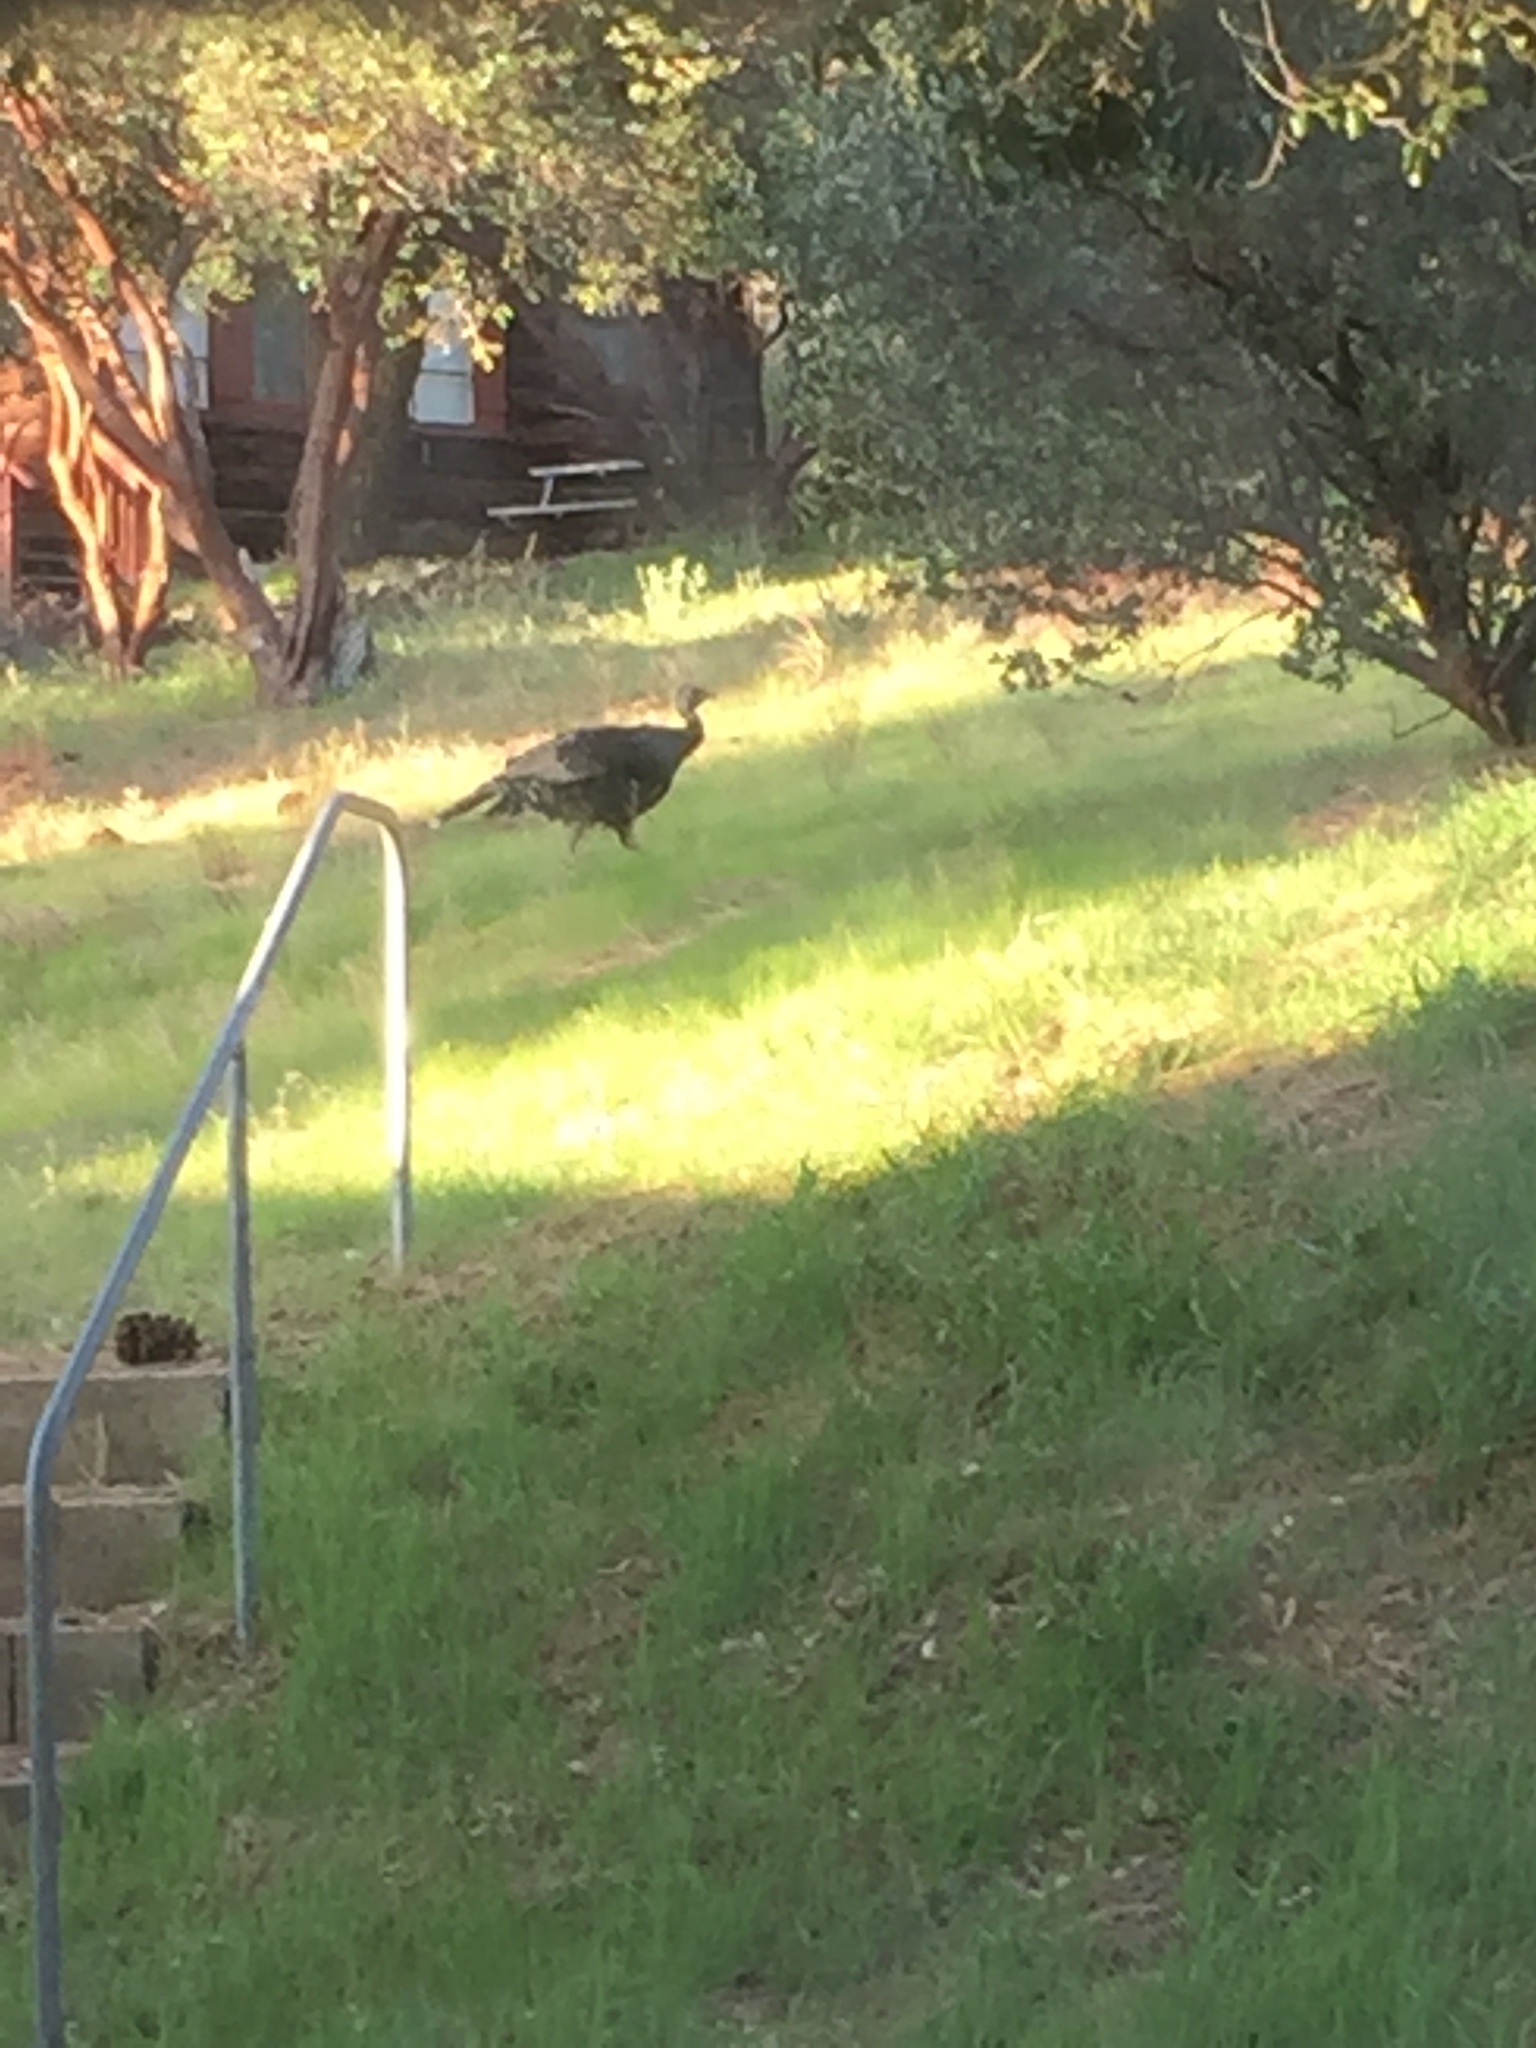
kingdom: Animalia
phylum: Chordata
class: Aves
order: Galliformes
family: Phasianidae
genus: Meleagris
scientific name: Meleagris gallopavo
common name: Wild turkey
